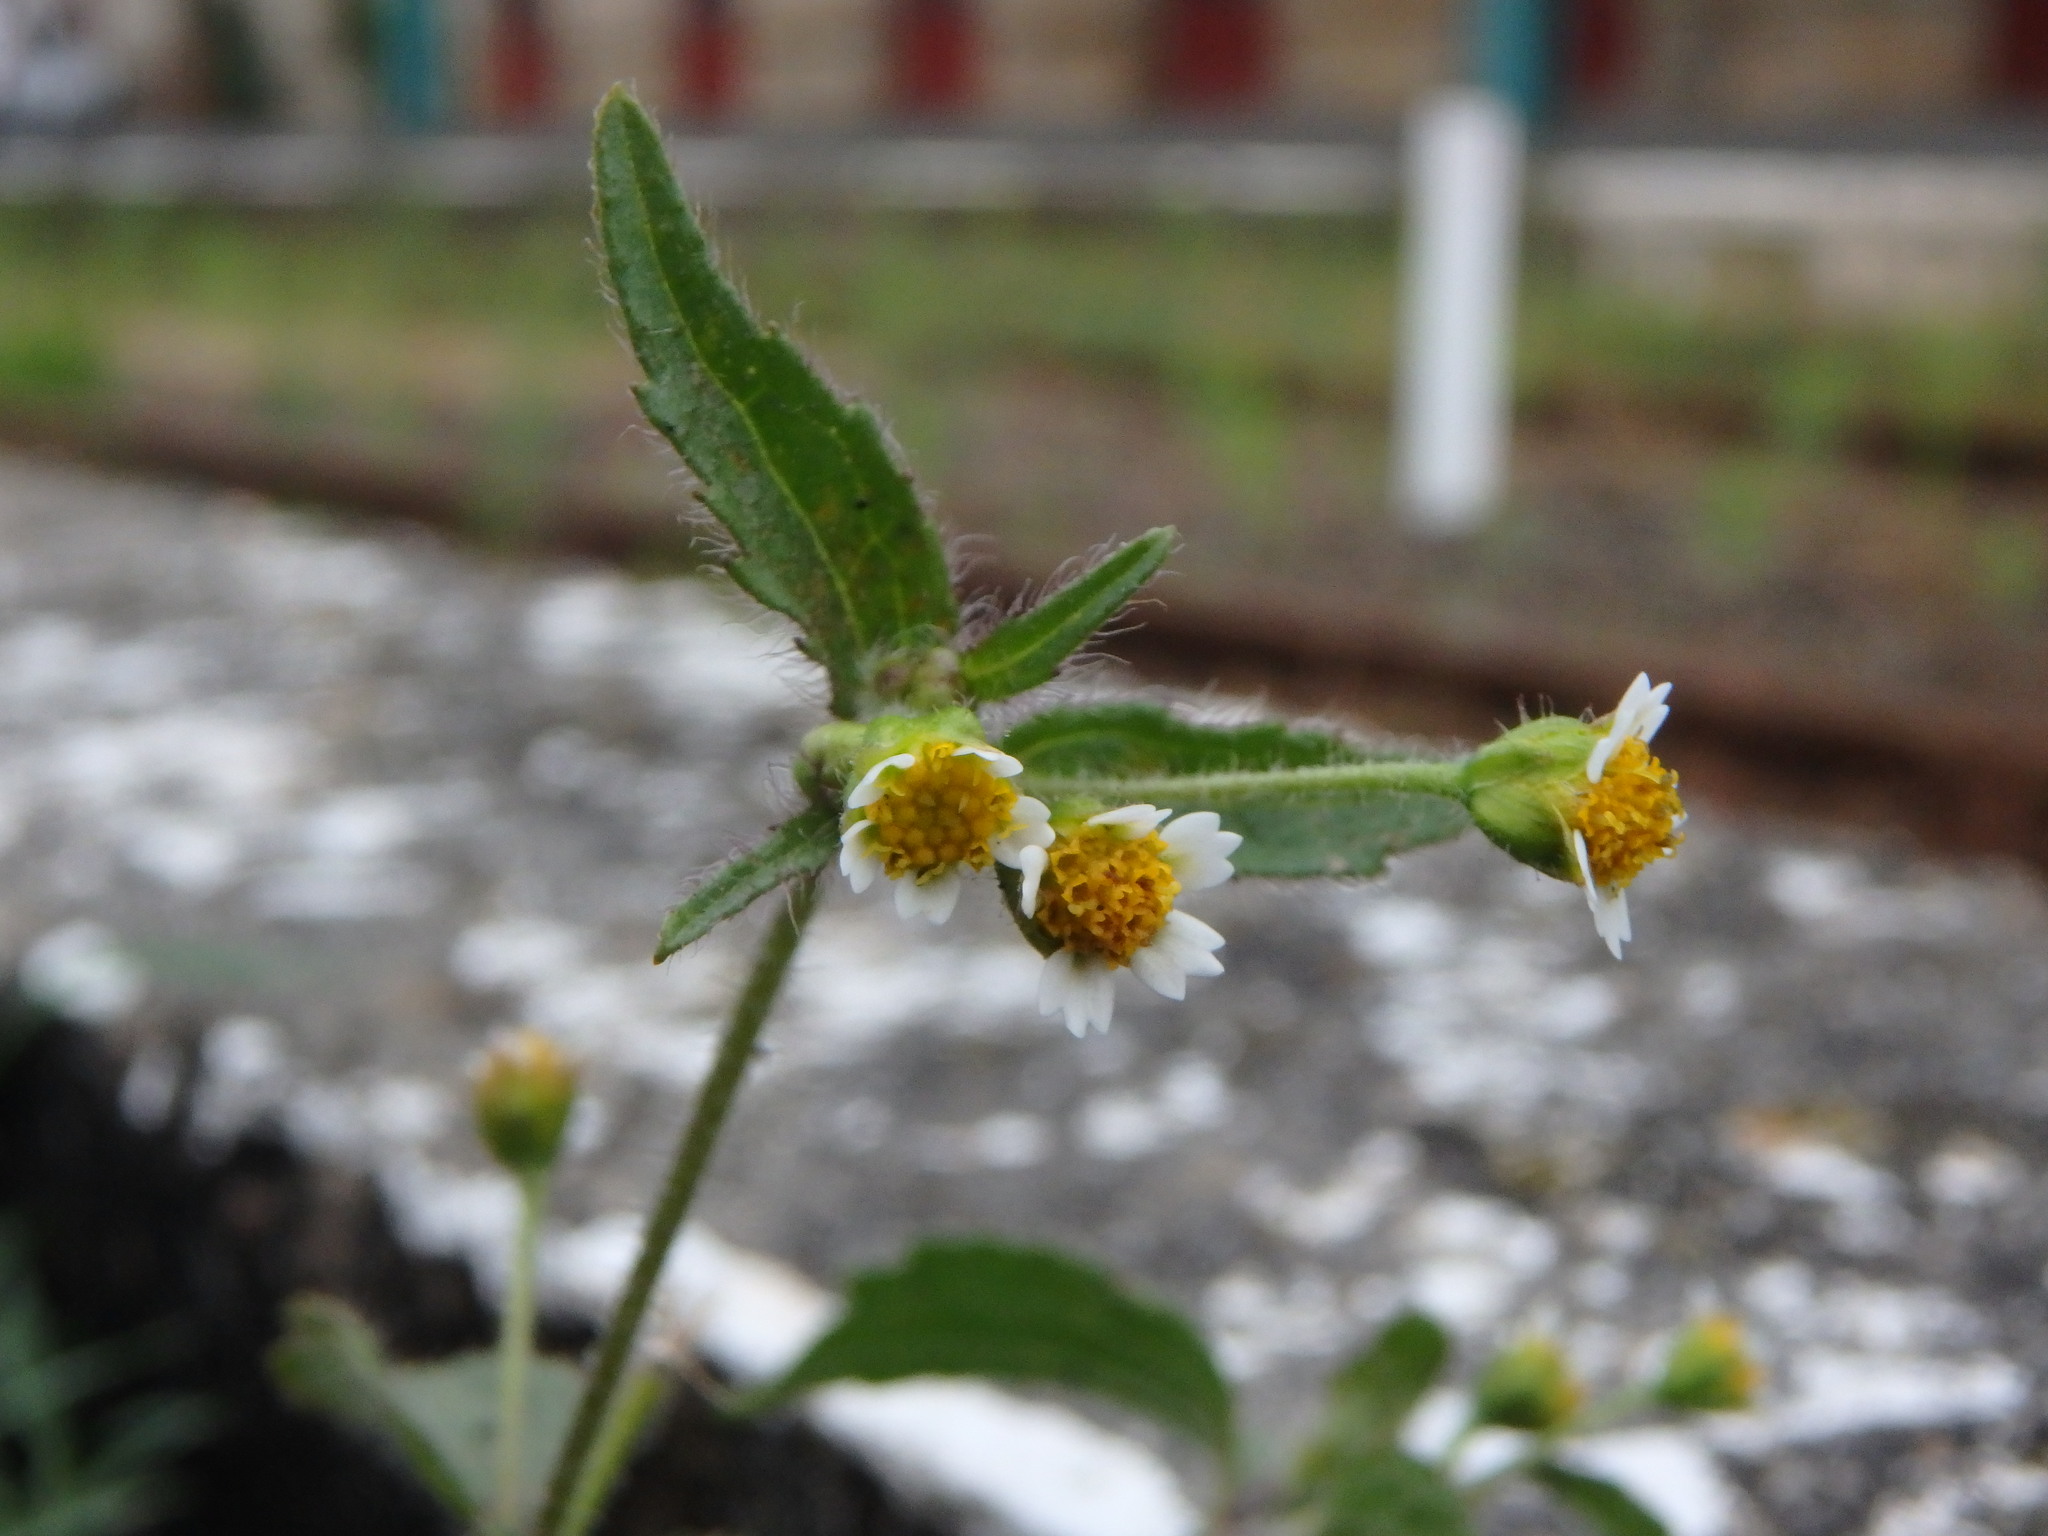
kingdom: Plantae
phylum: Tracheophyta
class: Magnoliopsida
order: Asterales
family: Asteraceae
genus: Galinsoga
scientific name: Galinsoga quadriradiata
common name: Shaggy soldier
